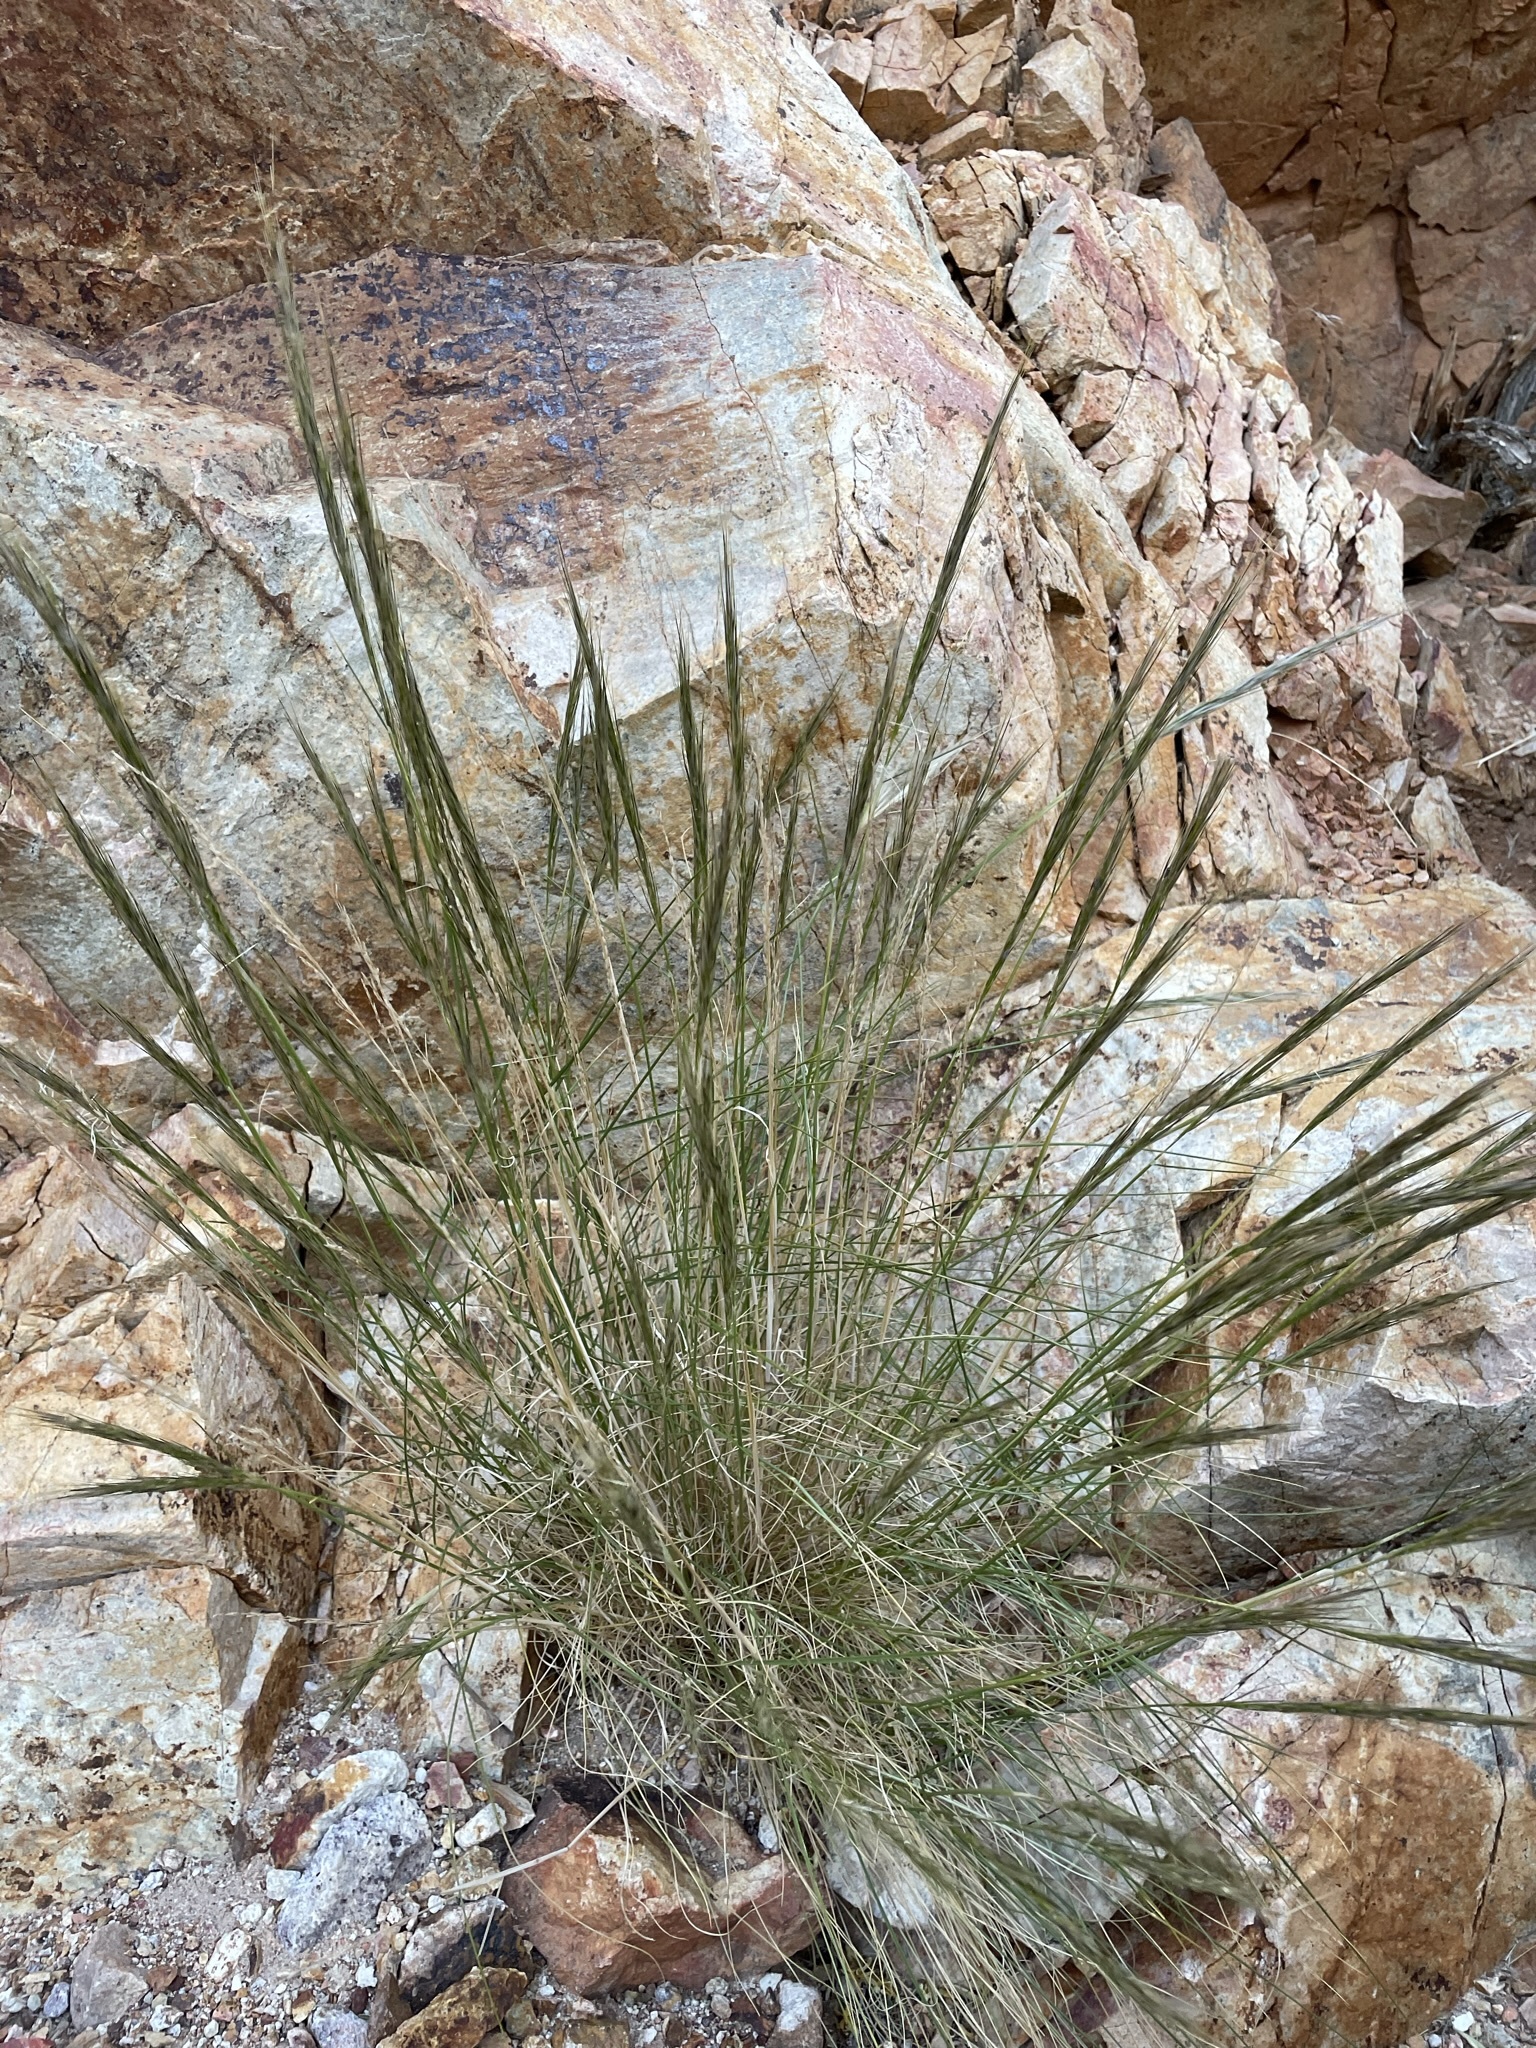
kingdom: Plantae
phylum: Tracheophyta
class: Liliopsida
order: Poales
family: Poaceae
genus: Pappostipa
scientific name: Pappostipa speciosa
